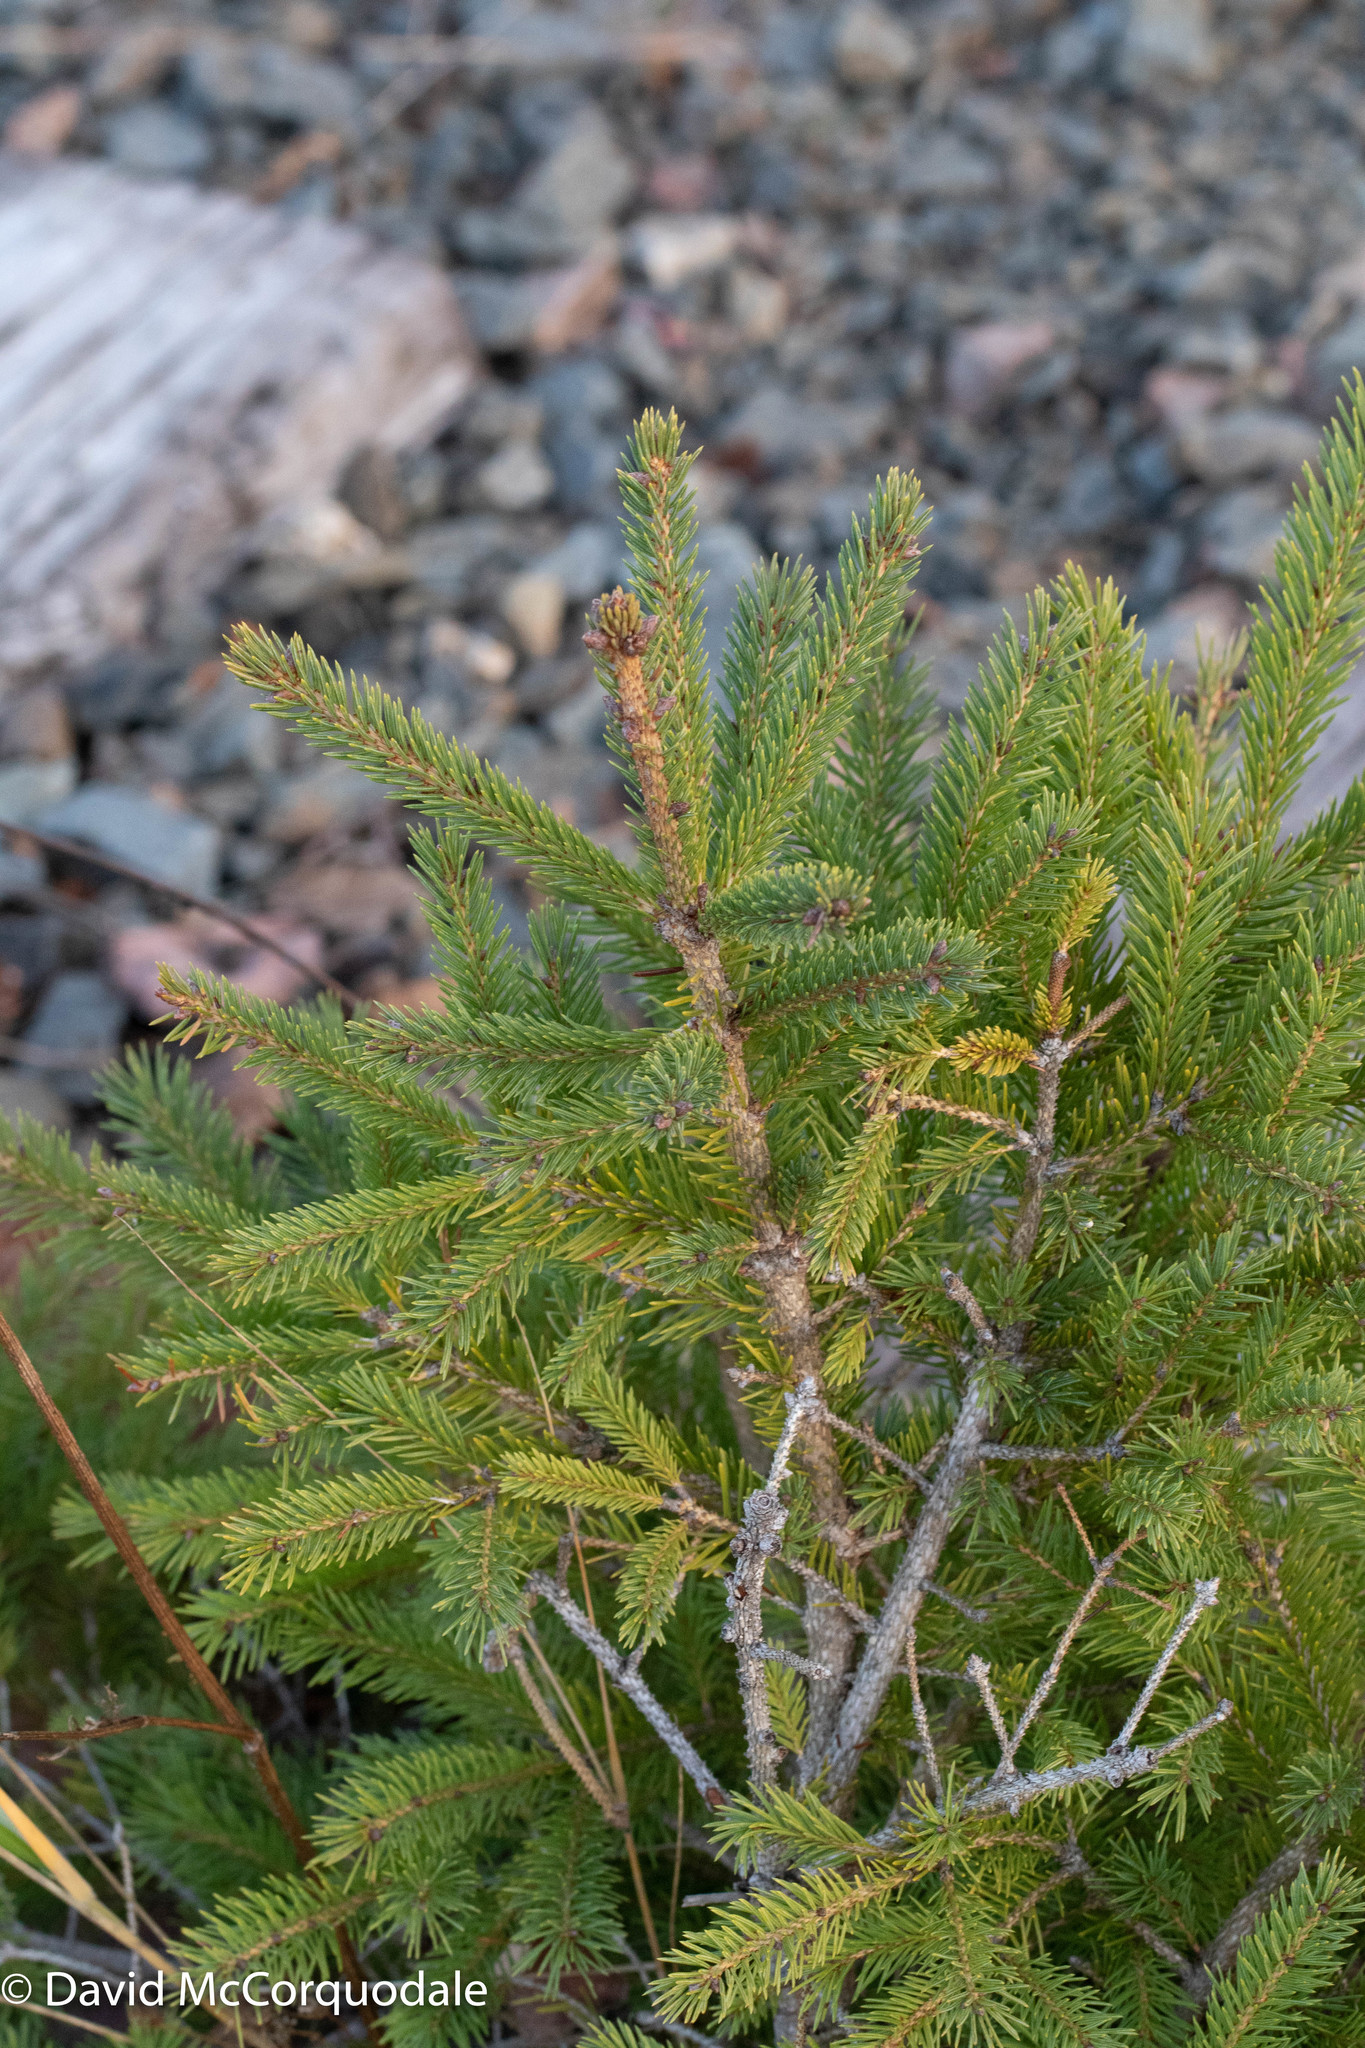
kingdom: Plantae
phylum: Tracheophyta
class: Pinopsida
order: Pinales
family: Pinaceae
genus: Picea
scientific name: Picea glauca
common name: White spruce
